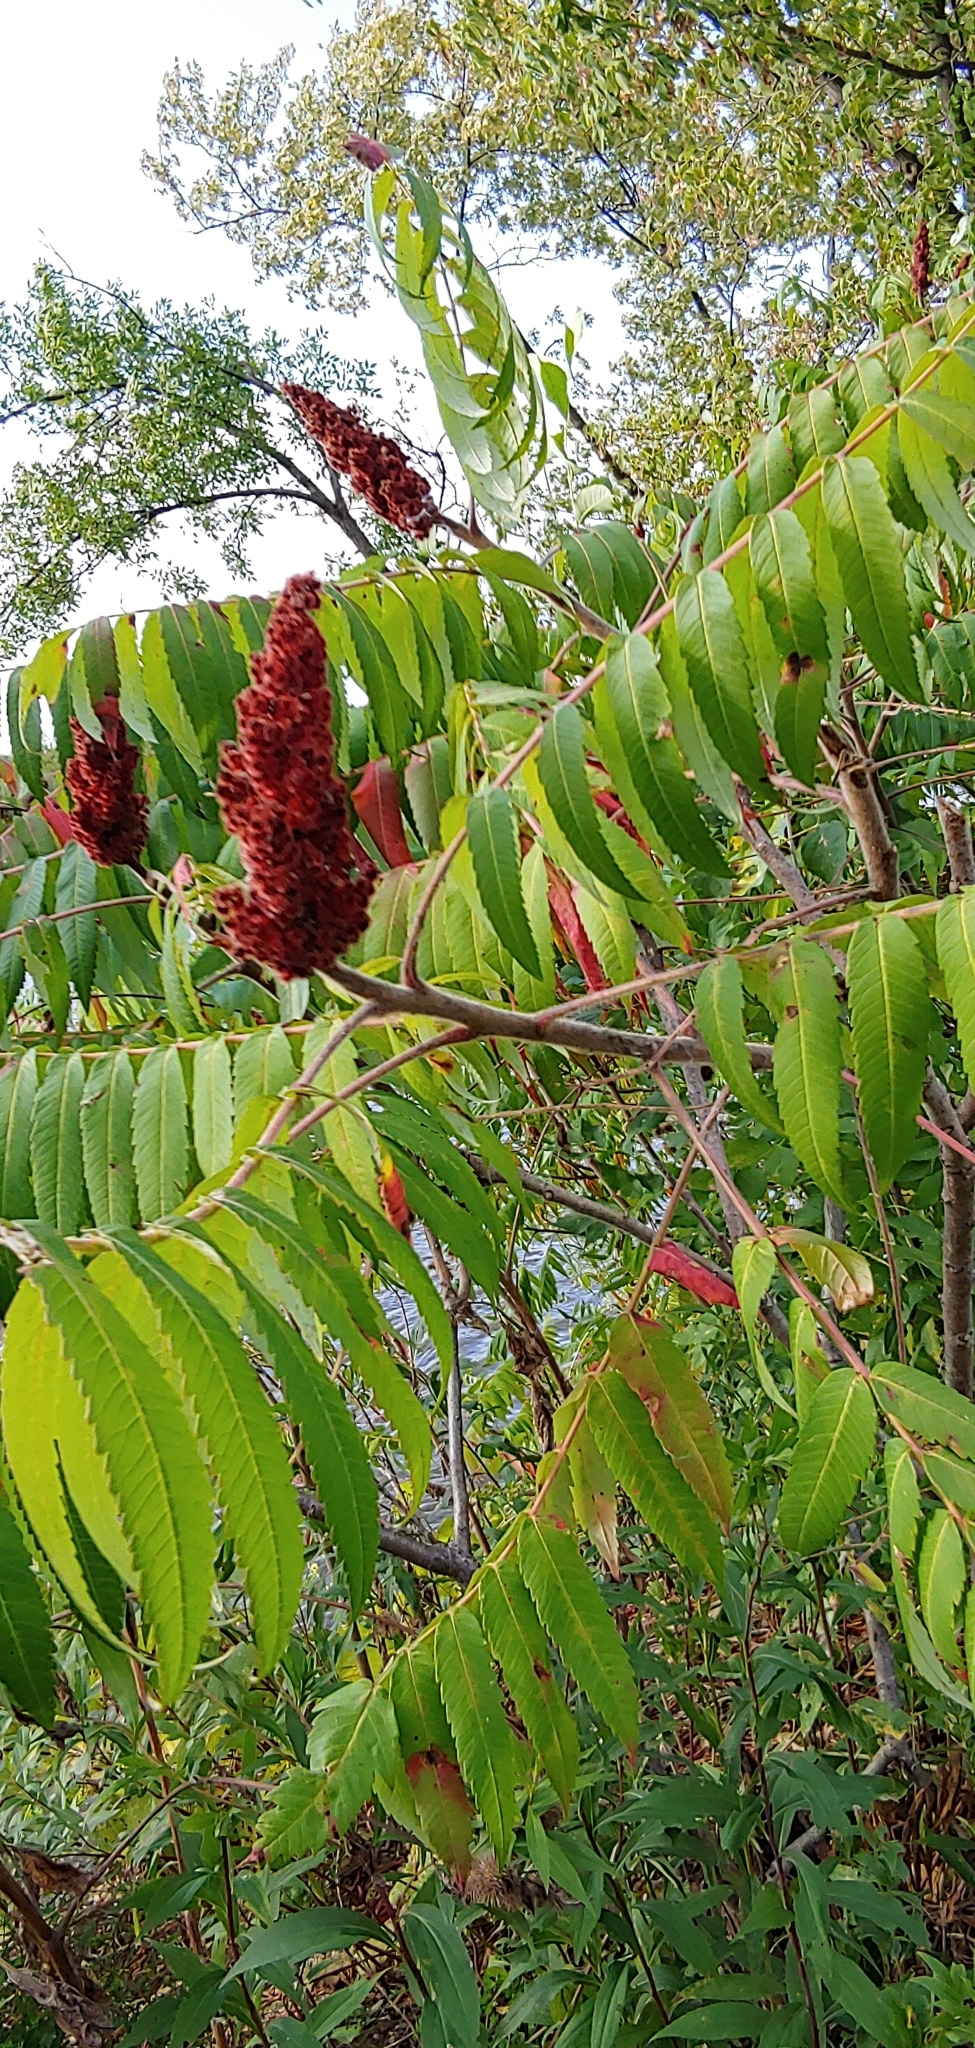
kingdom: Plantae
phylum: Tracheophyta
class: Magnoliopsida
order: Sapindales
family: Anacardiaceae
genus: Rhus
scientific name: Rhus typhina
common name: Staghorn sumac
